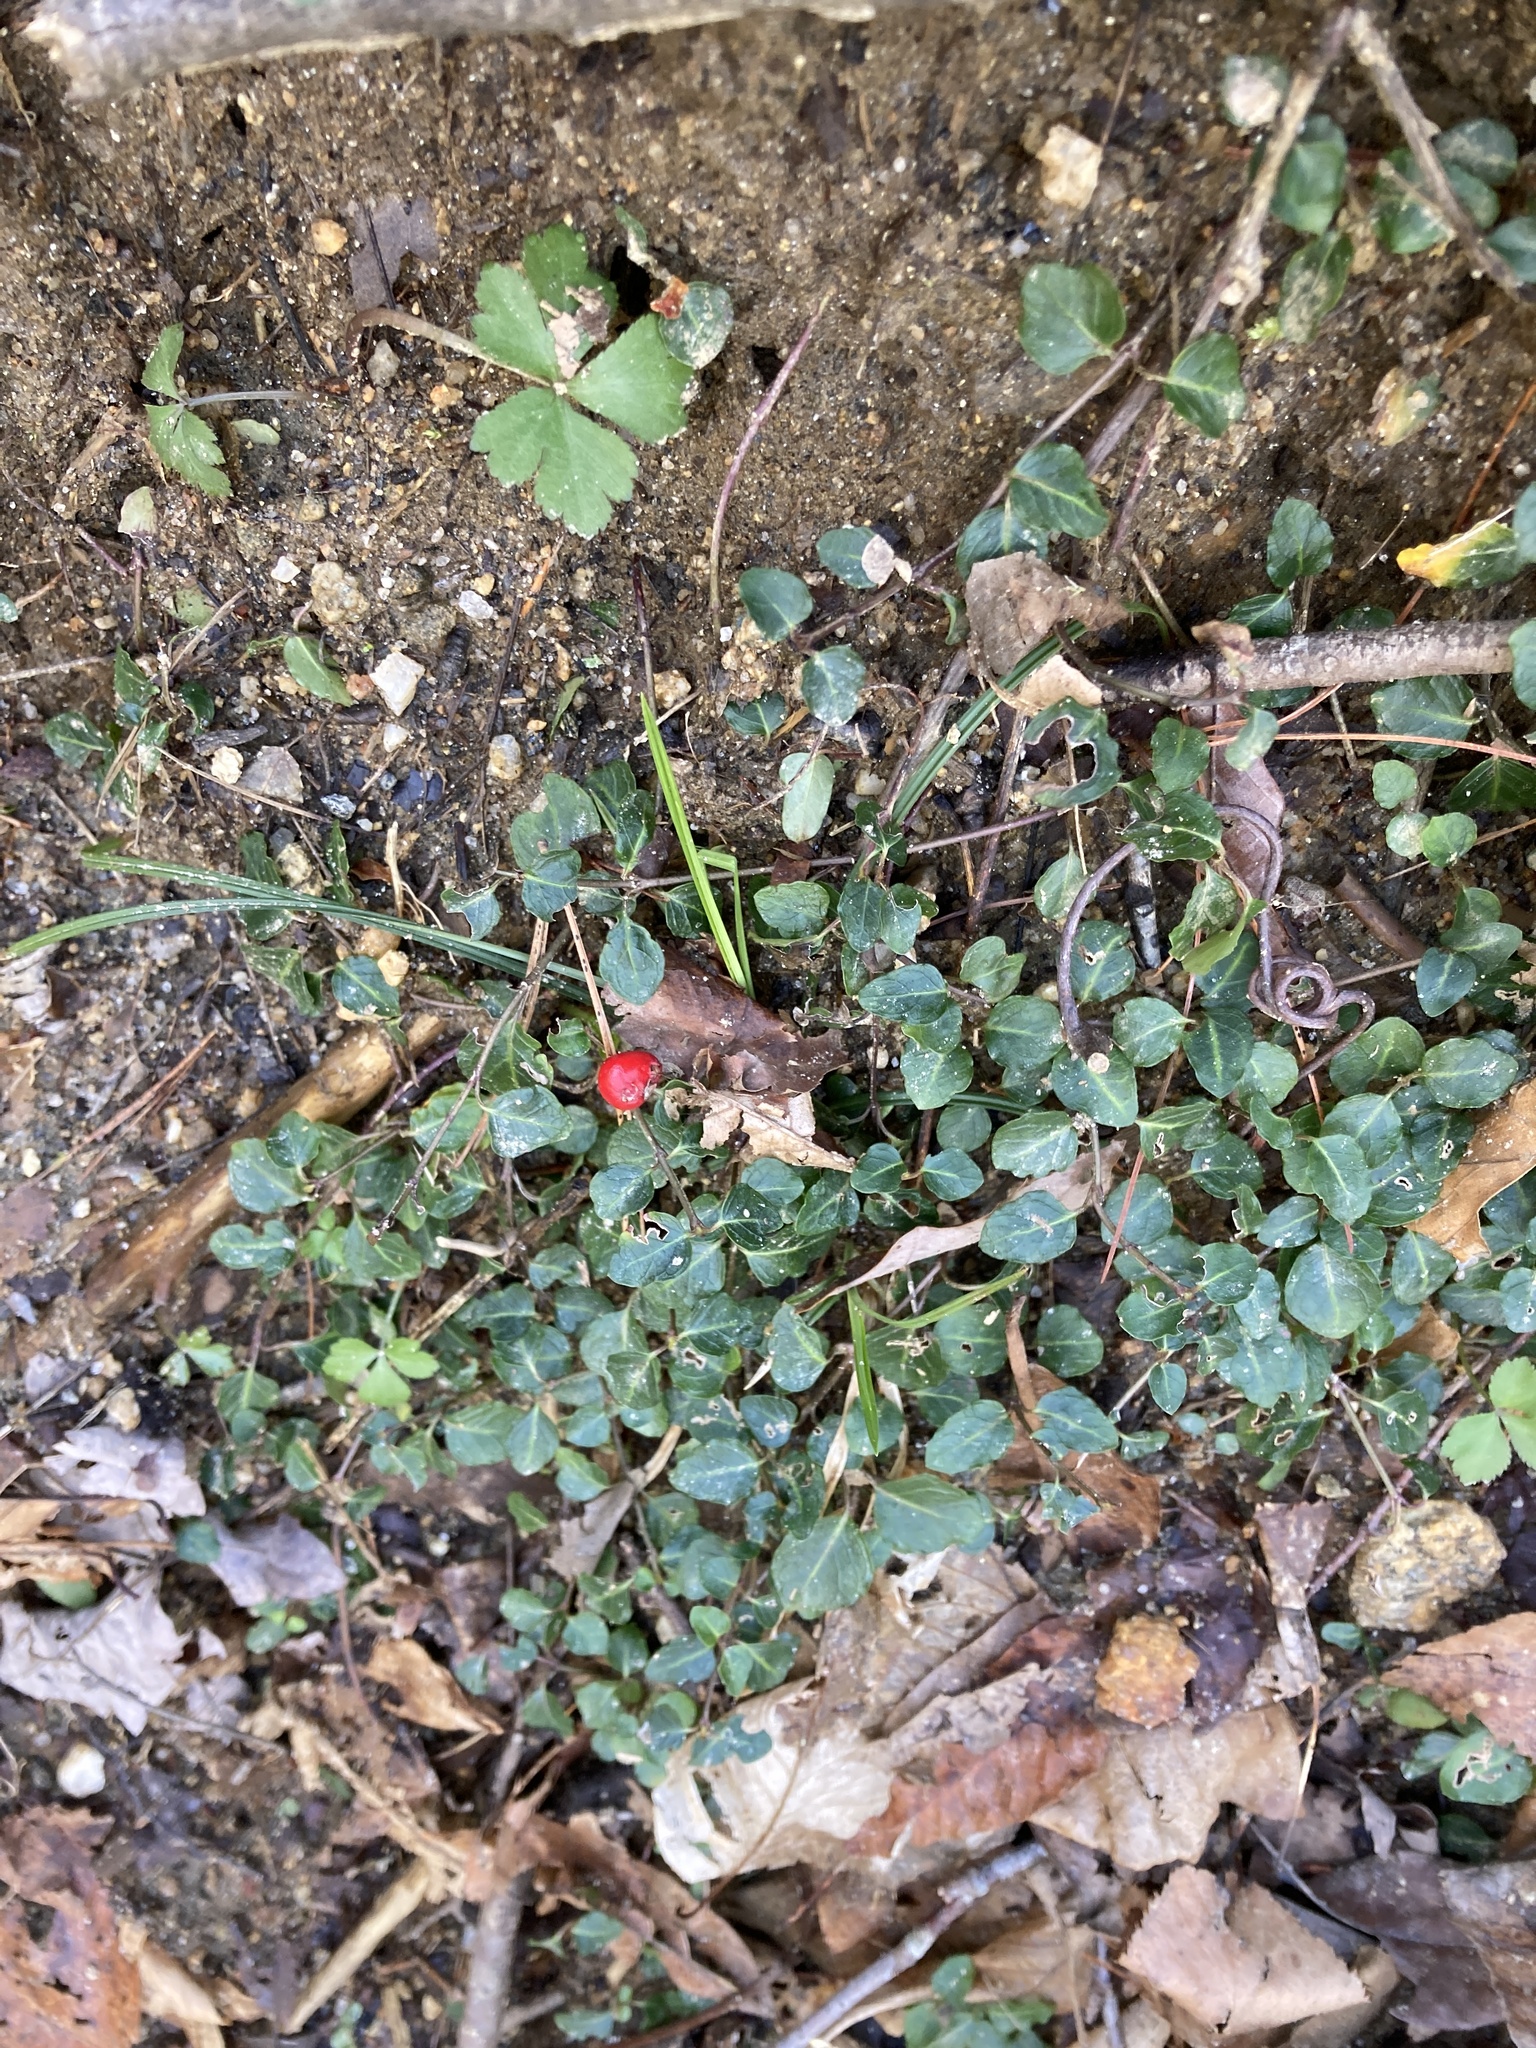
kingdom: Plantae
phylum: Tracheophyta
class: Magnoliopsida
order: Gentianales
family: Rubiaceae
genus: Mitchella
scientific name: Mitchella repens
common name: Partridge-berry
